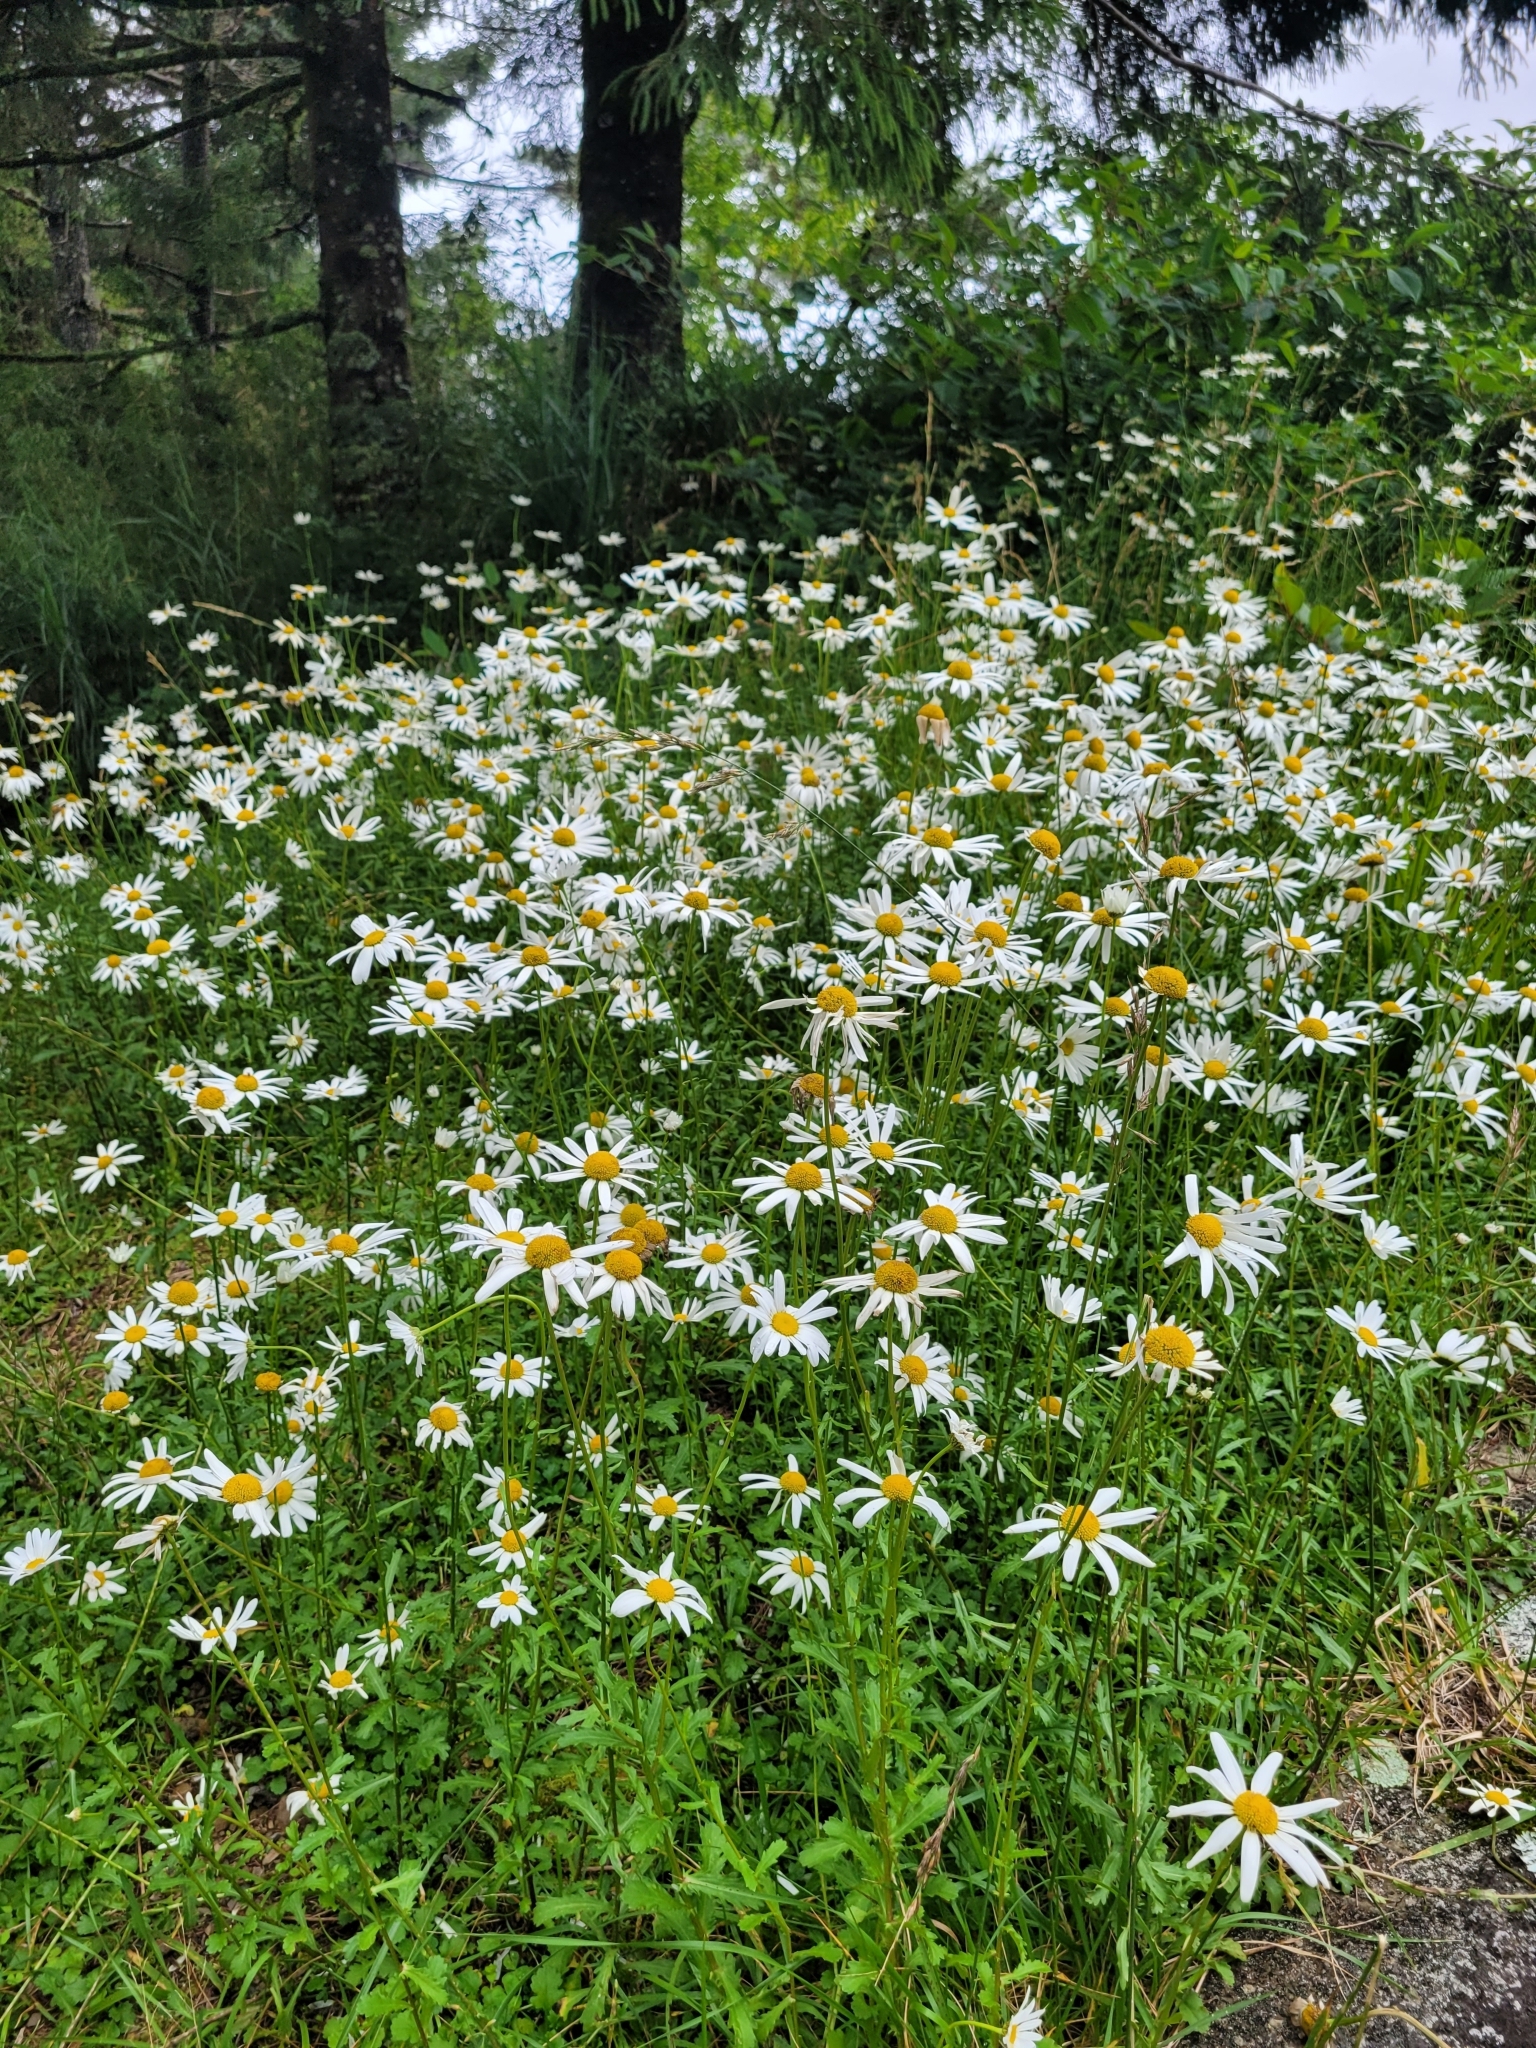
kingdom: Plantae
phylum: Tracheophyta
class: Magnoliopsida
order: Asterales
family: Asteraceae
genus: Leucanthemum
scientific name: Leucanthemum vulgare
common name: Oxeye daisy
